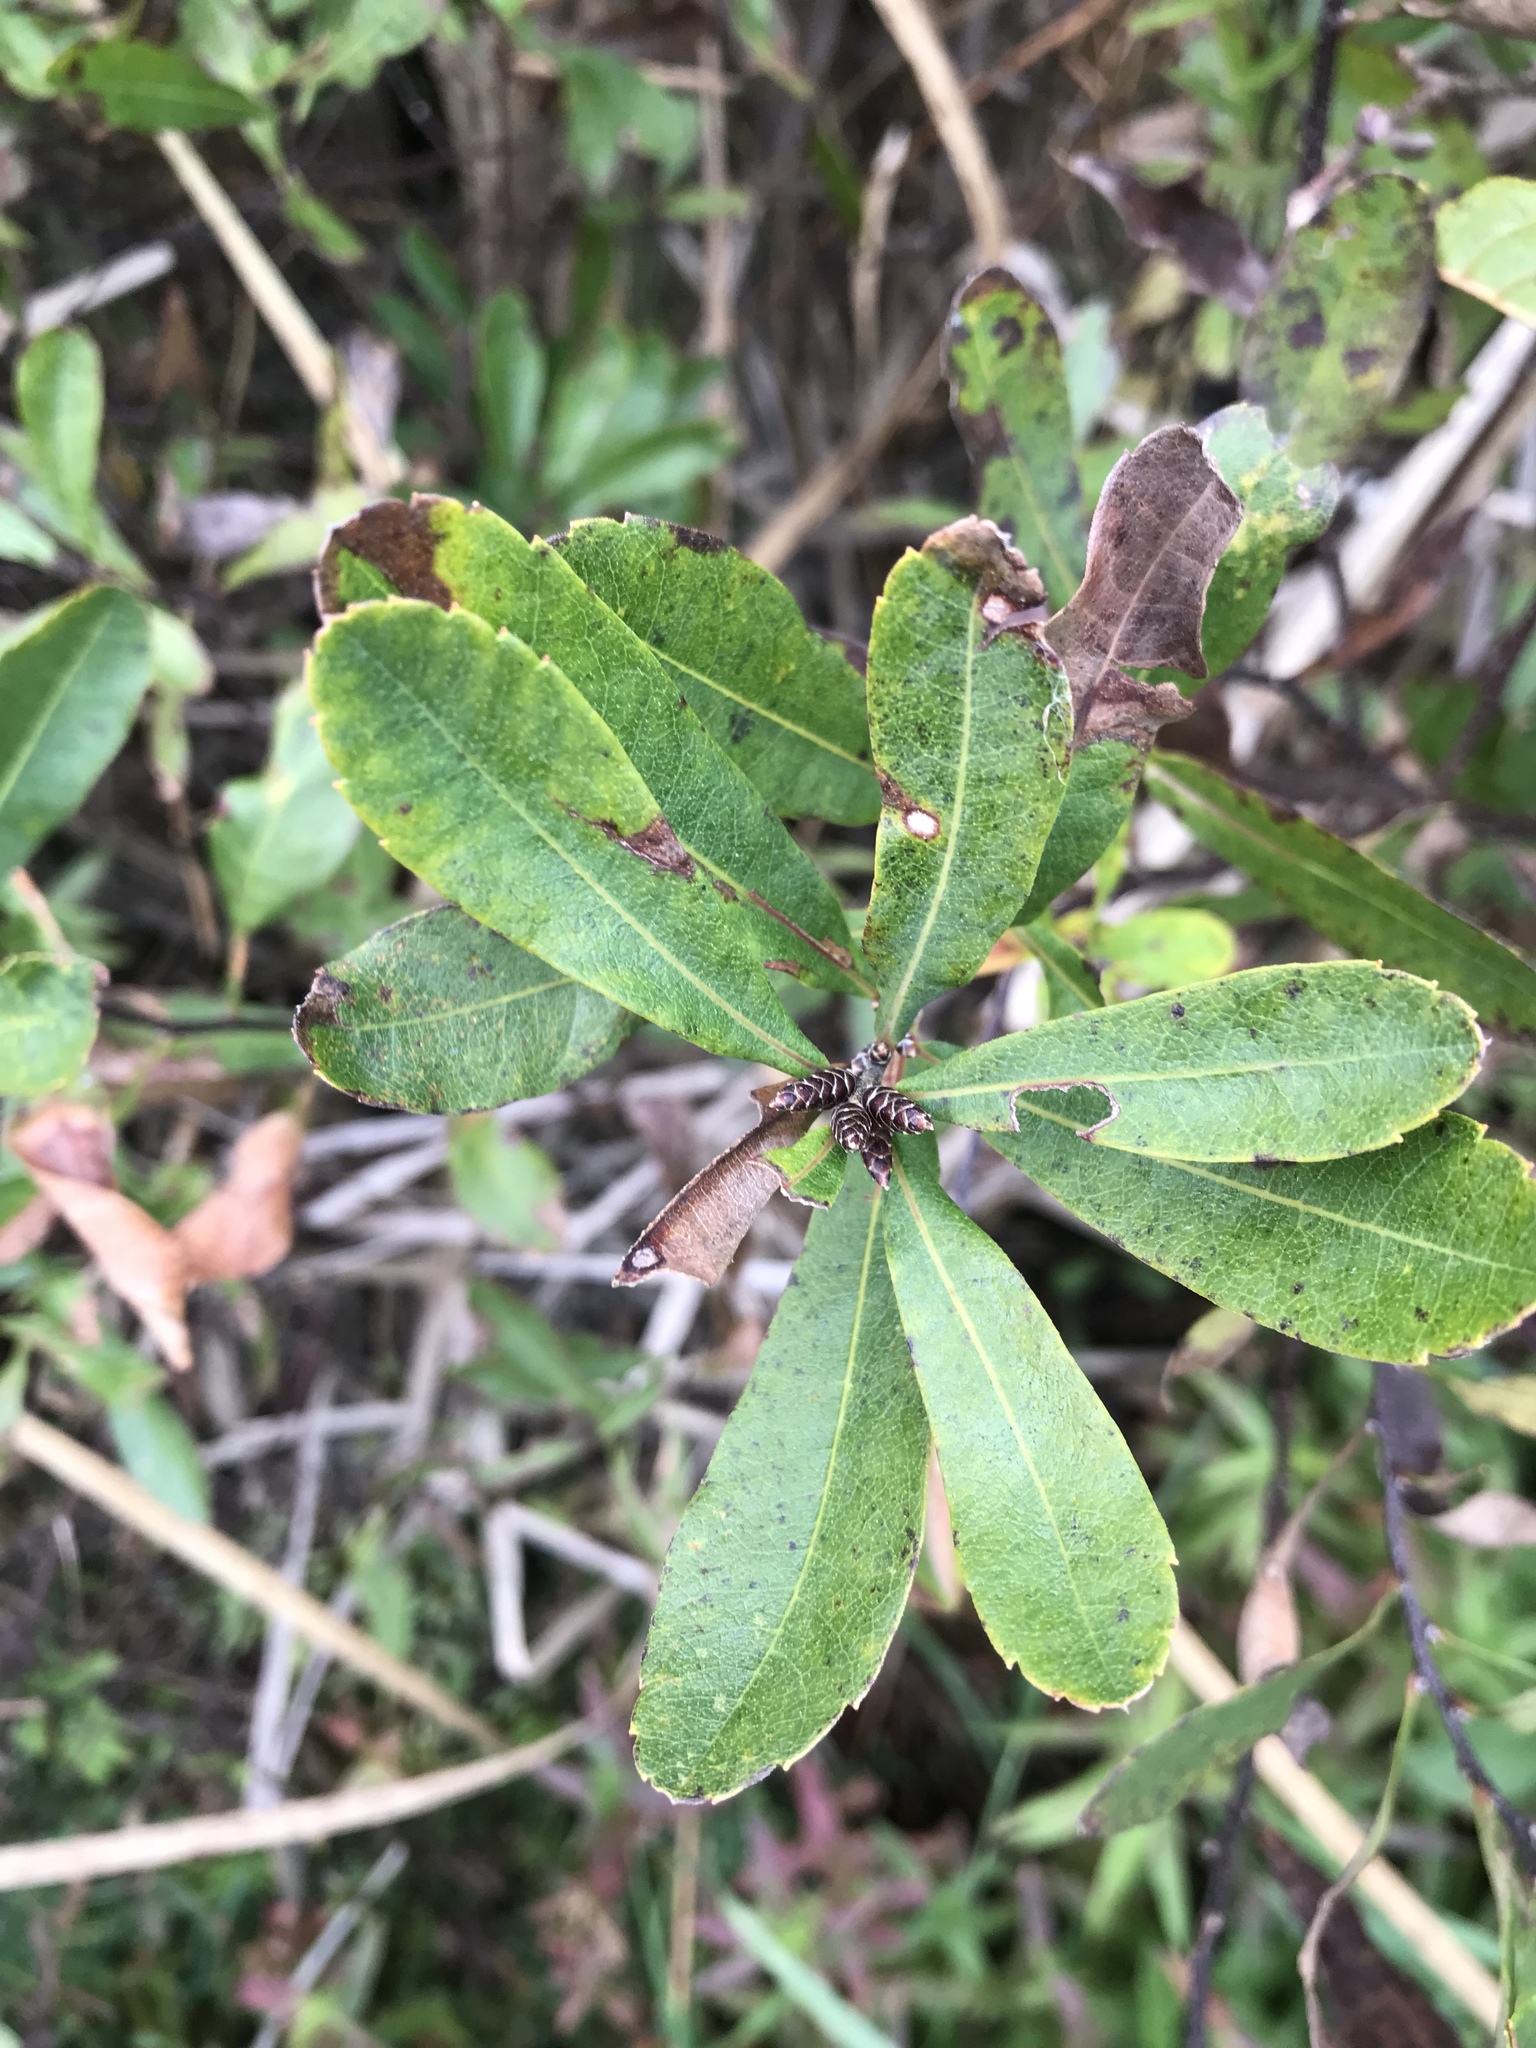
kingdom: Plantae
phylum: Tracheophyta
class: Magnoliopsida
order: Fagales
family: Myricaceae
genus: Myrica
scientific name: Myrica gale
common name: Sweet gale
